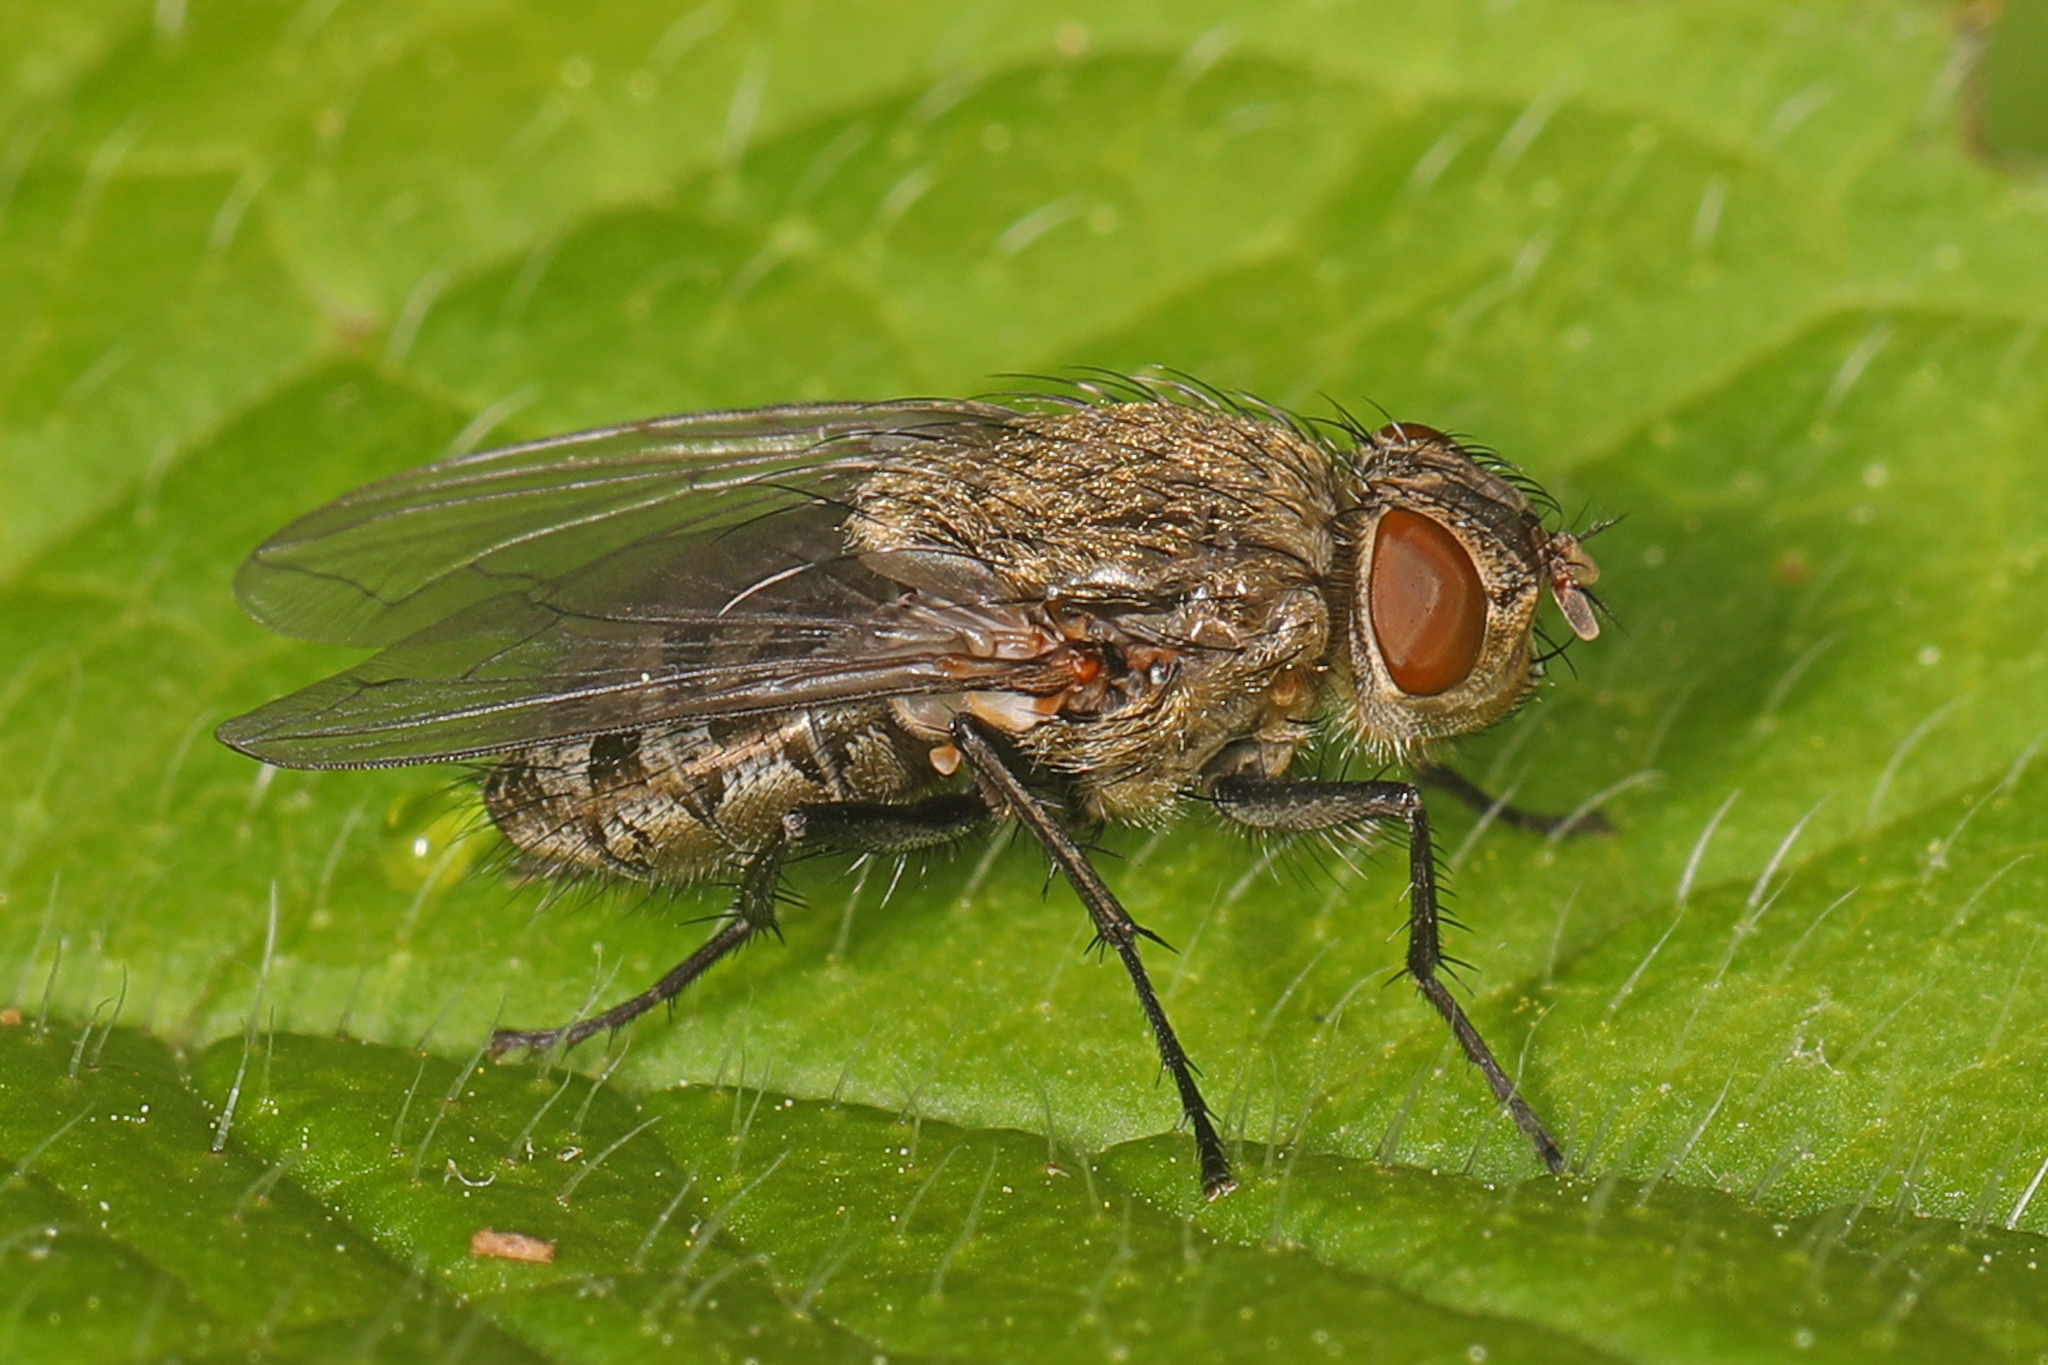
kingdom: Animalia
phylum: Arthropoda
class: Insecta
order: Diptera
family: Polleniidae
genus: Pollenia
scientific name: Pollenia
